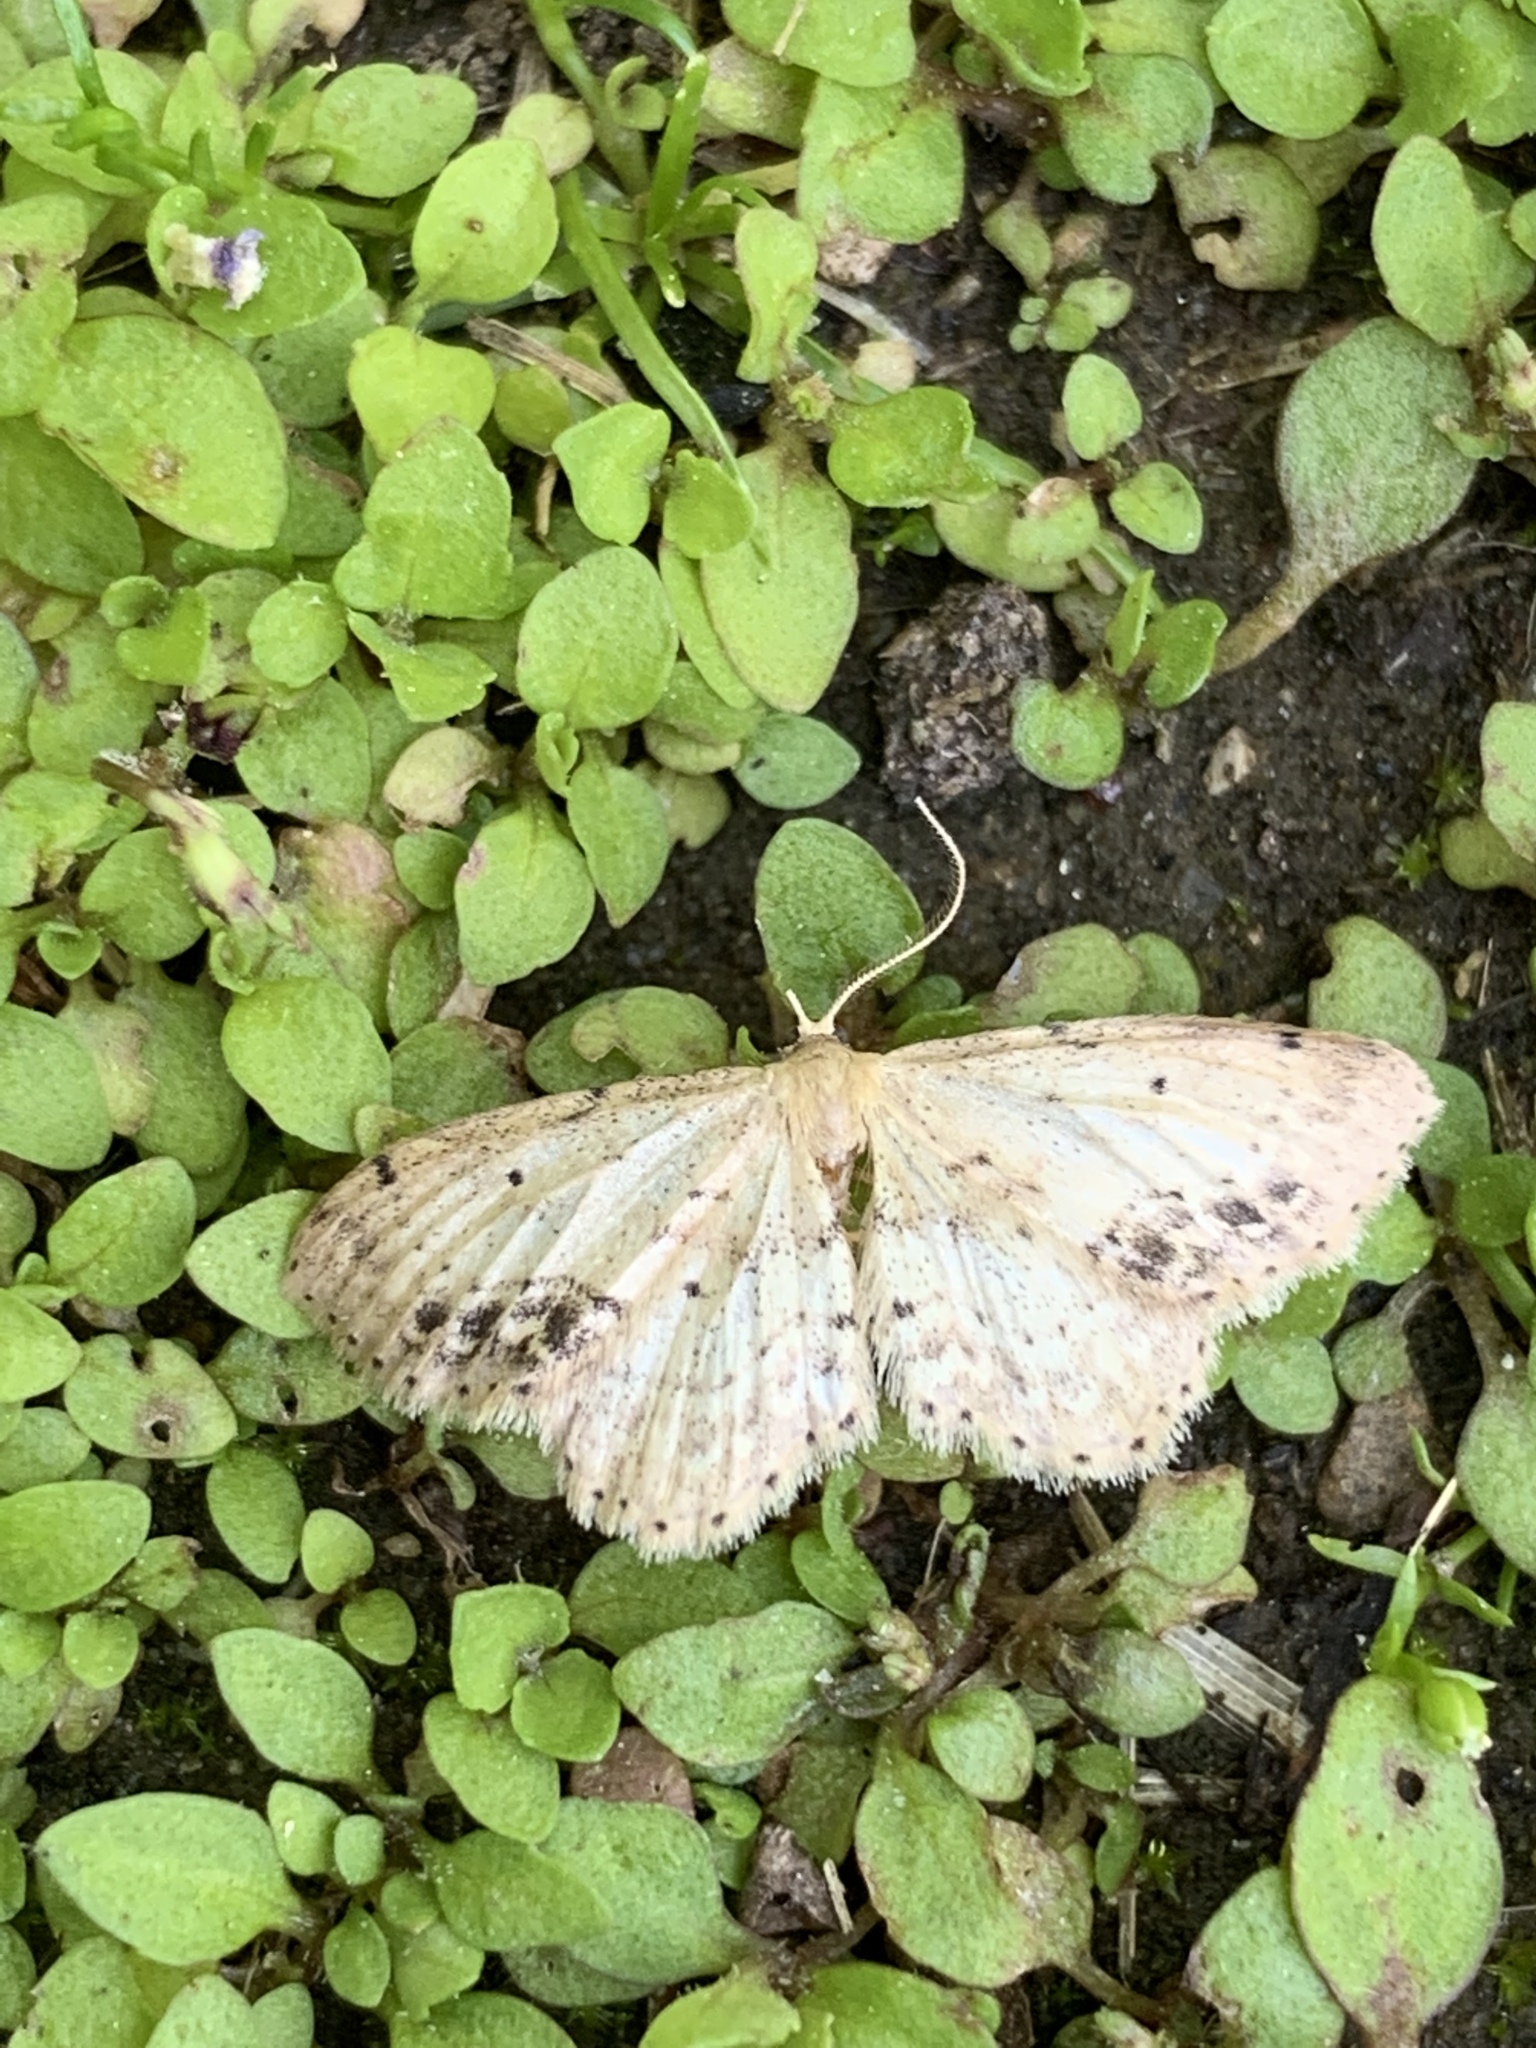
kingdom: Animalia
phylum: Arthropoda
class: Insecta
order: Lepidoptera
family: Geometridae
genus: Idaea
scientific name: Idaea dimidiata
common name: Single-dotted wave
